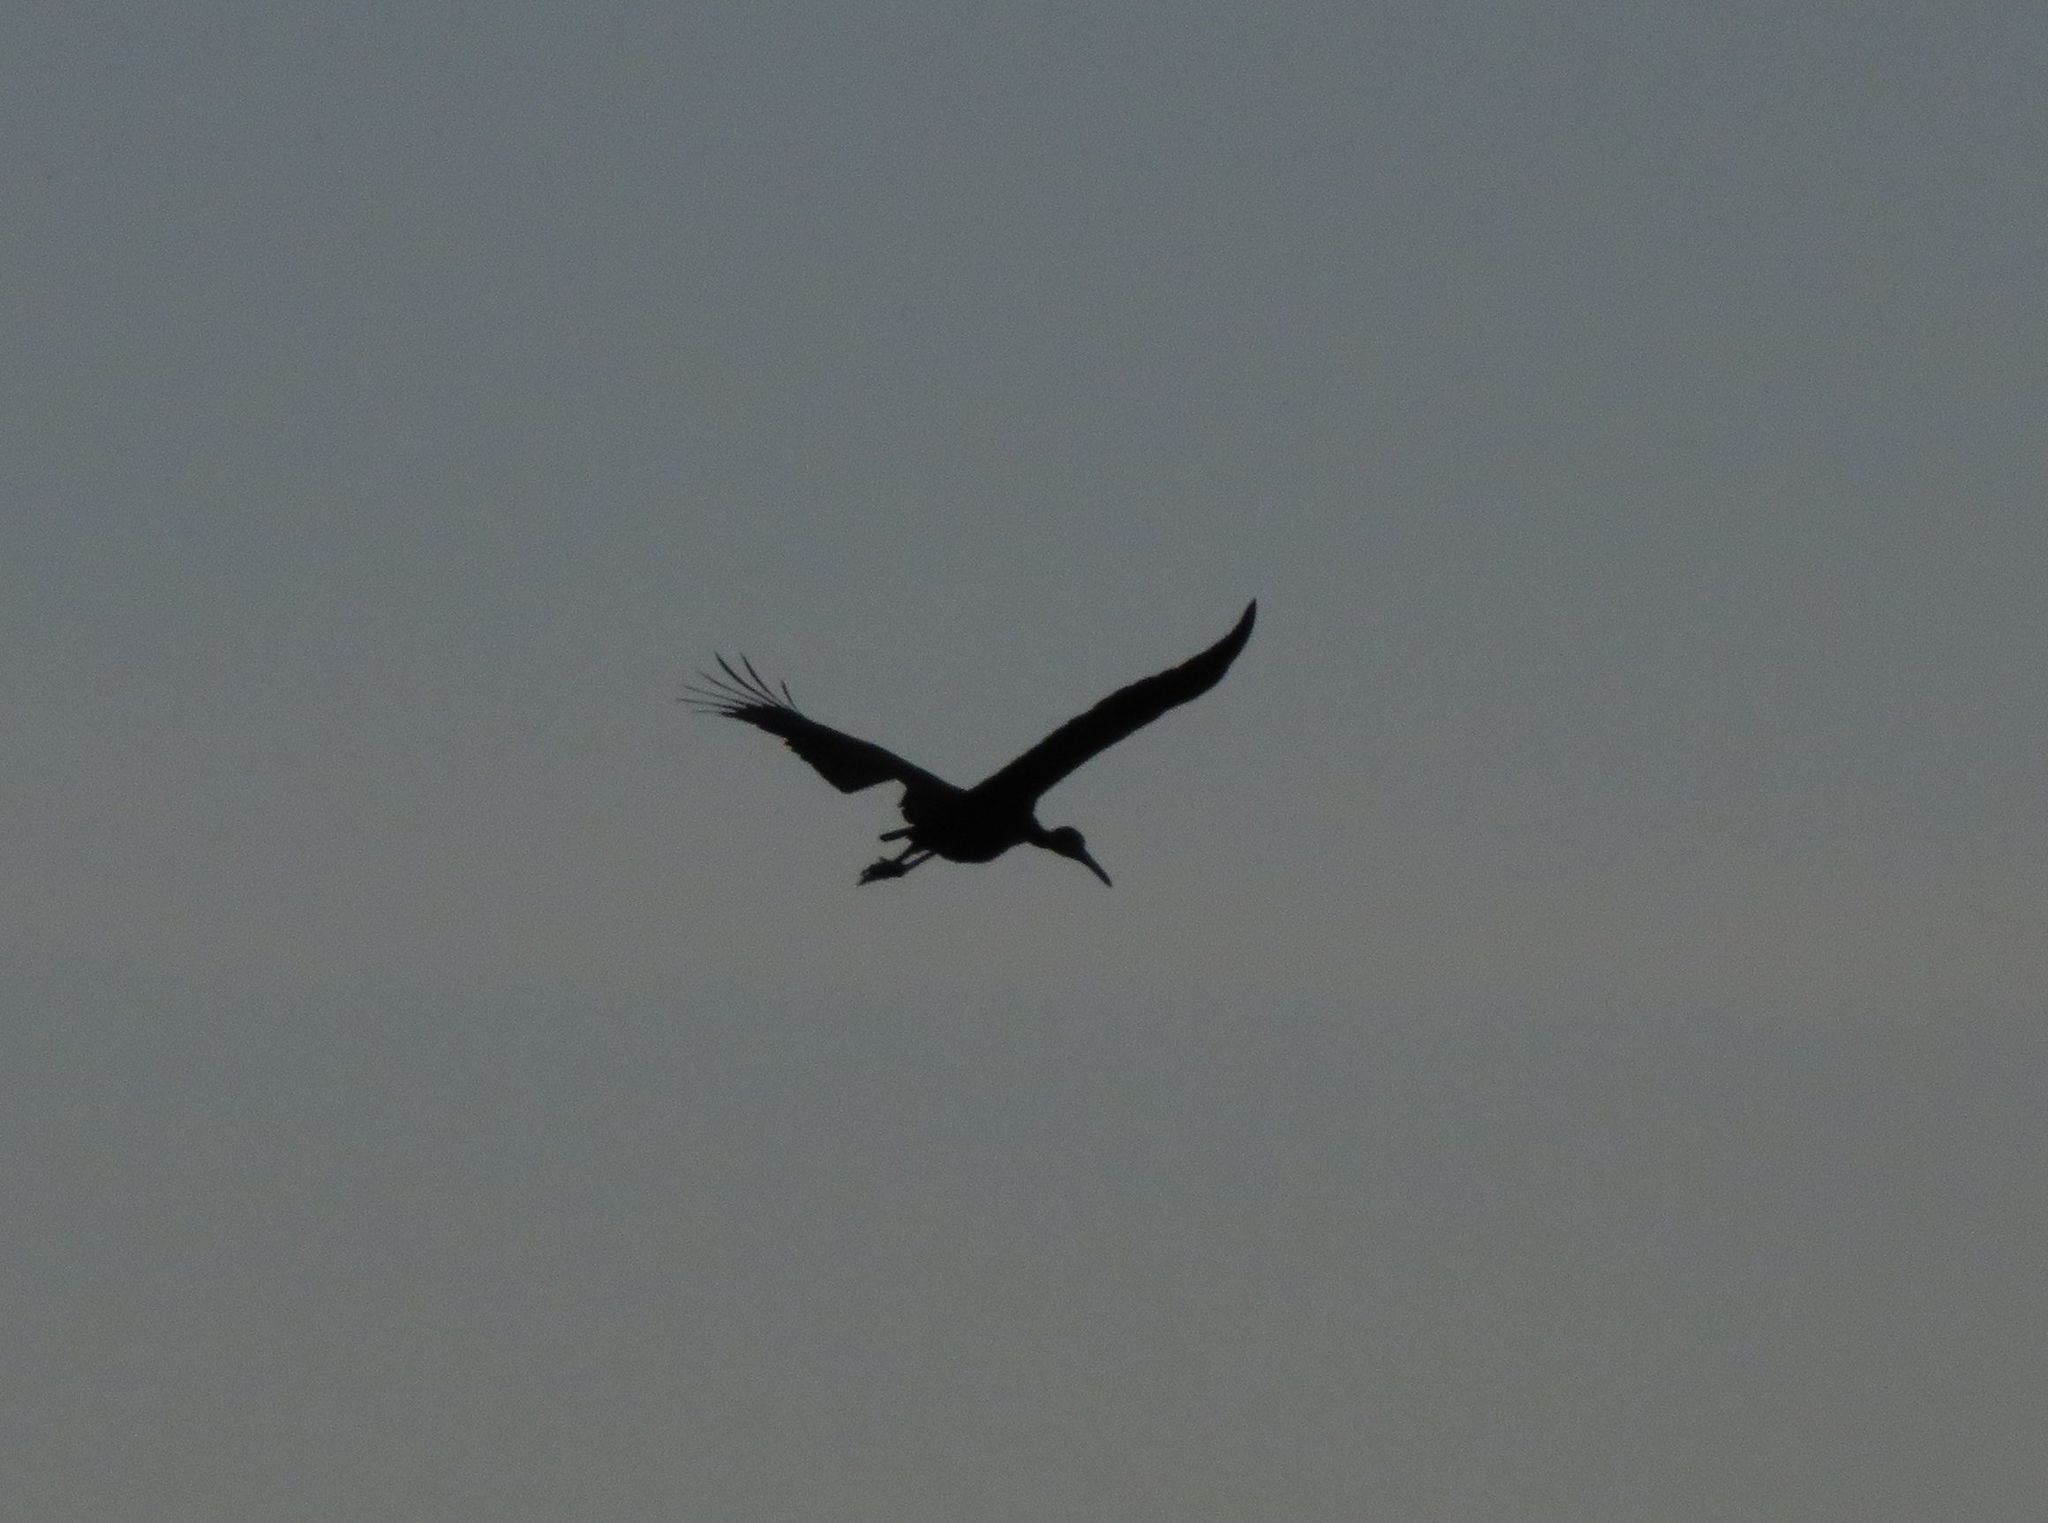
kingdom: Animalia
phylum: Chordata
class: Aves
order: Gruiformes
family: Aramidae
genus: Aramus
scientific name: Aramus guarauna
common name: Limpkin
